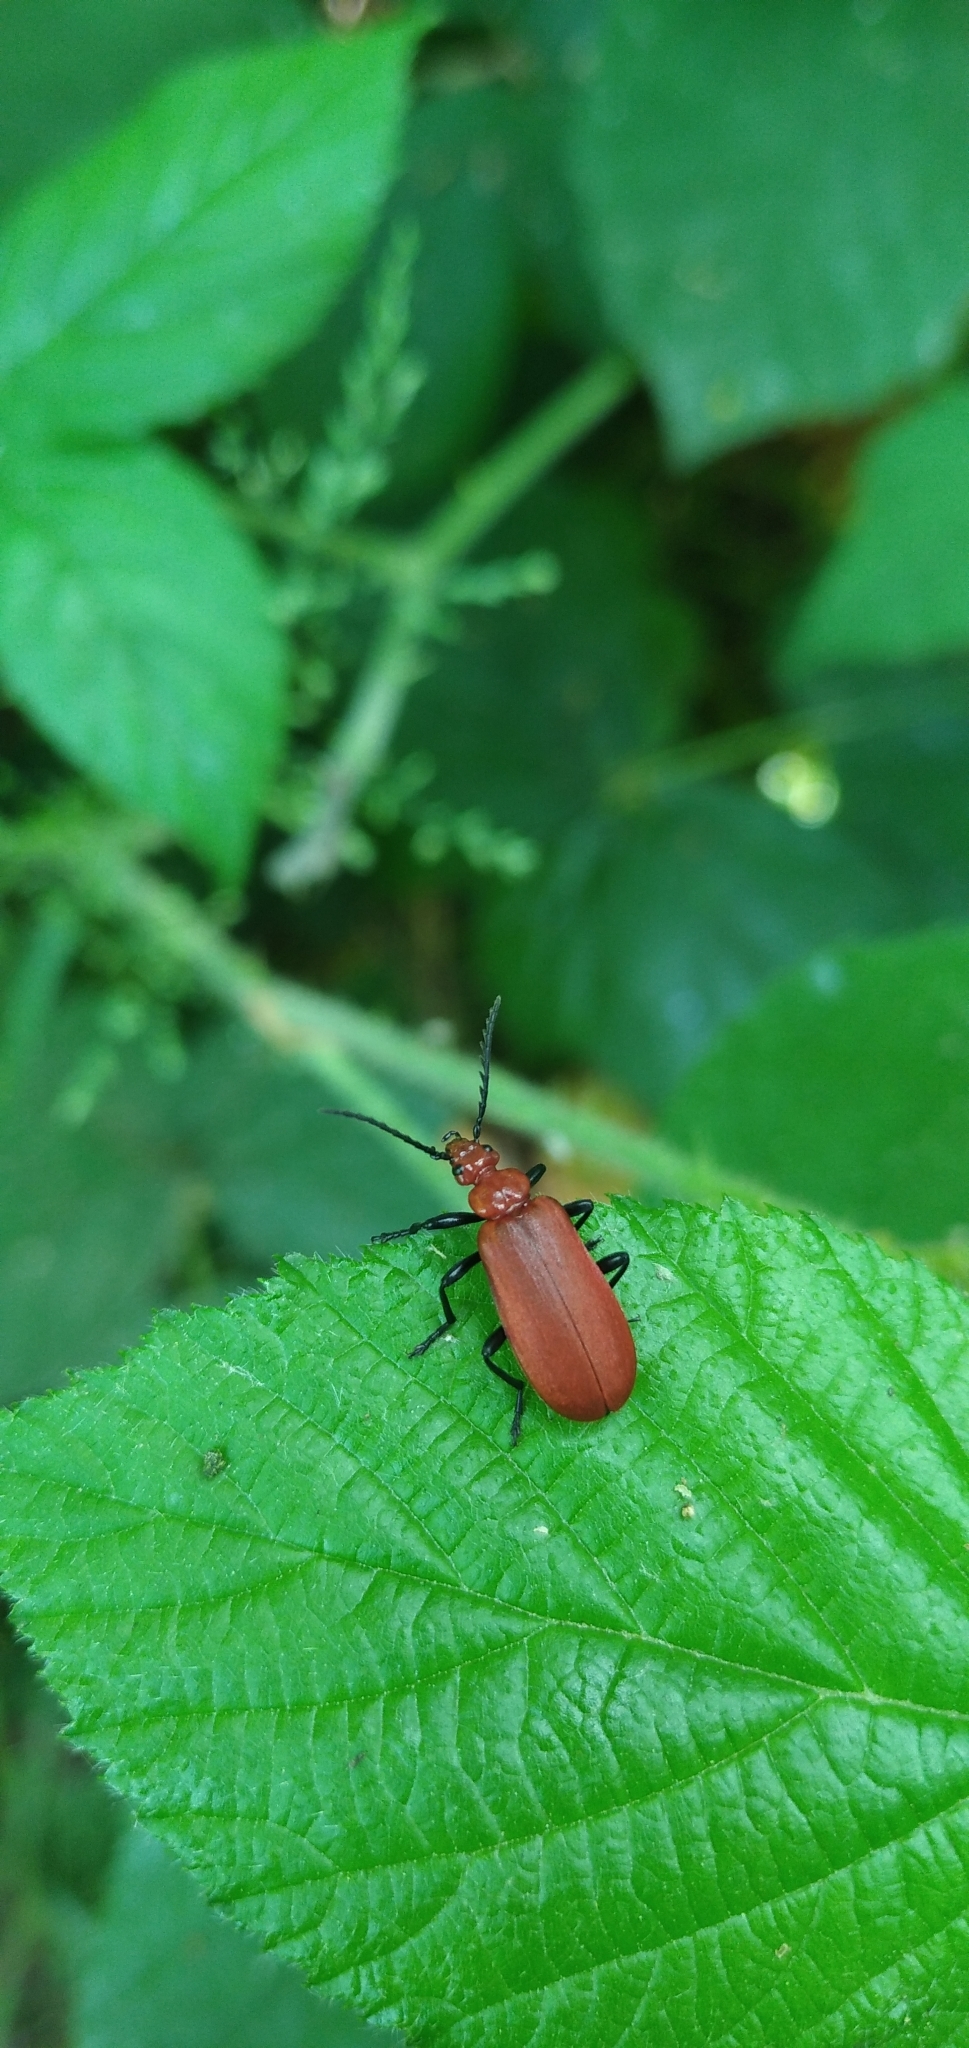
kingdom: Animalia
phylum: Arthropoda
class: Insecta
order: Coleoptera
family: Pyrochroidae
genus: Pyrochroa
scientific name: Pyrochroa serraticornis
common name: Red-headed cardinal beetle
